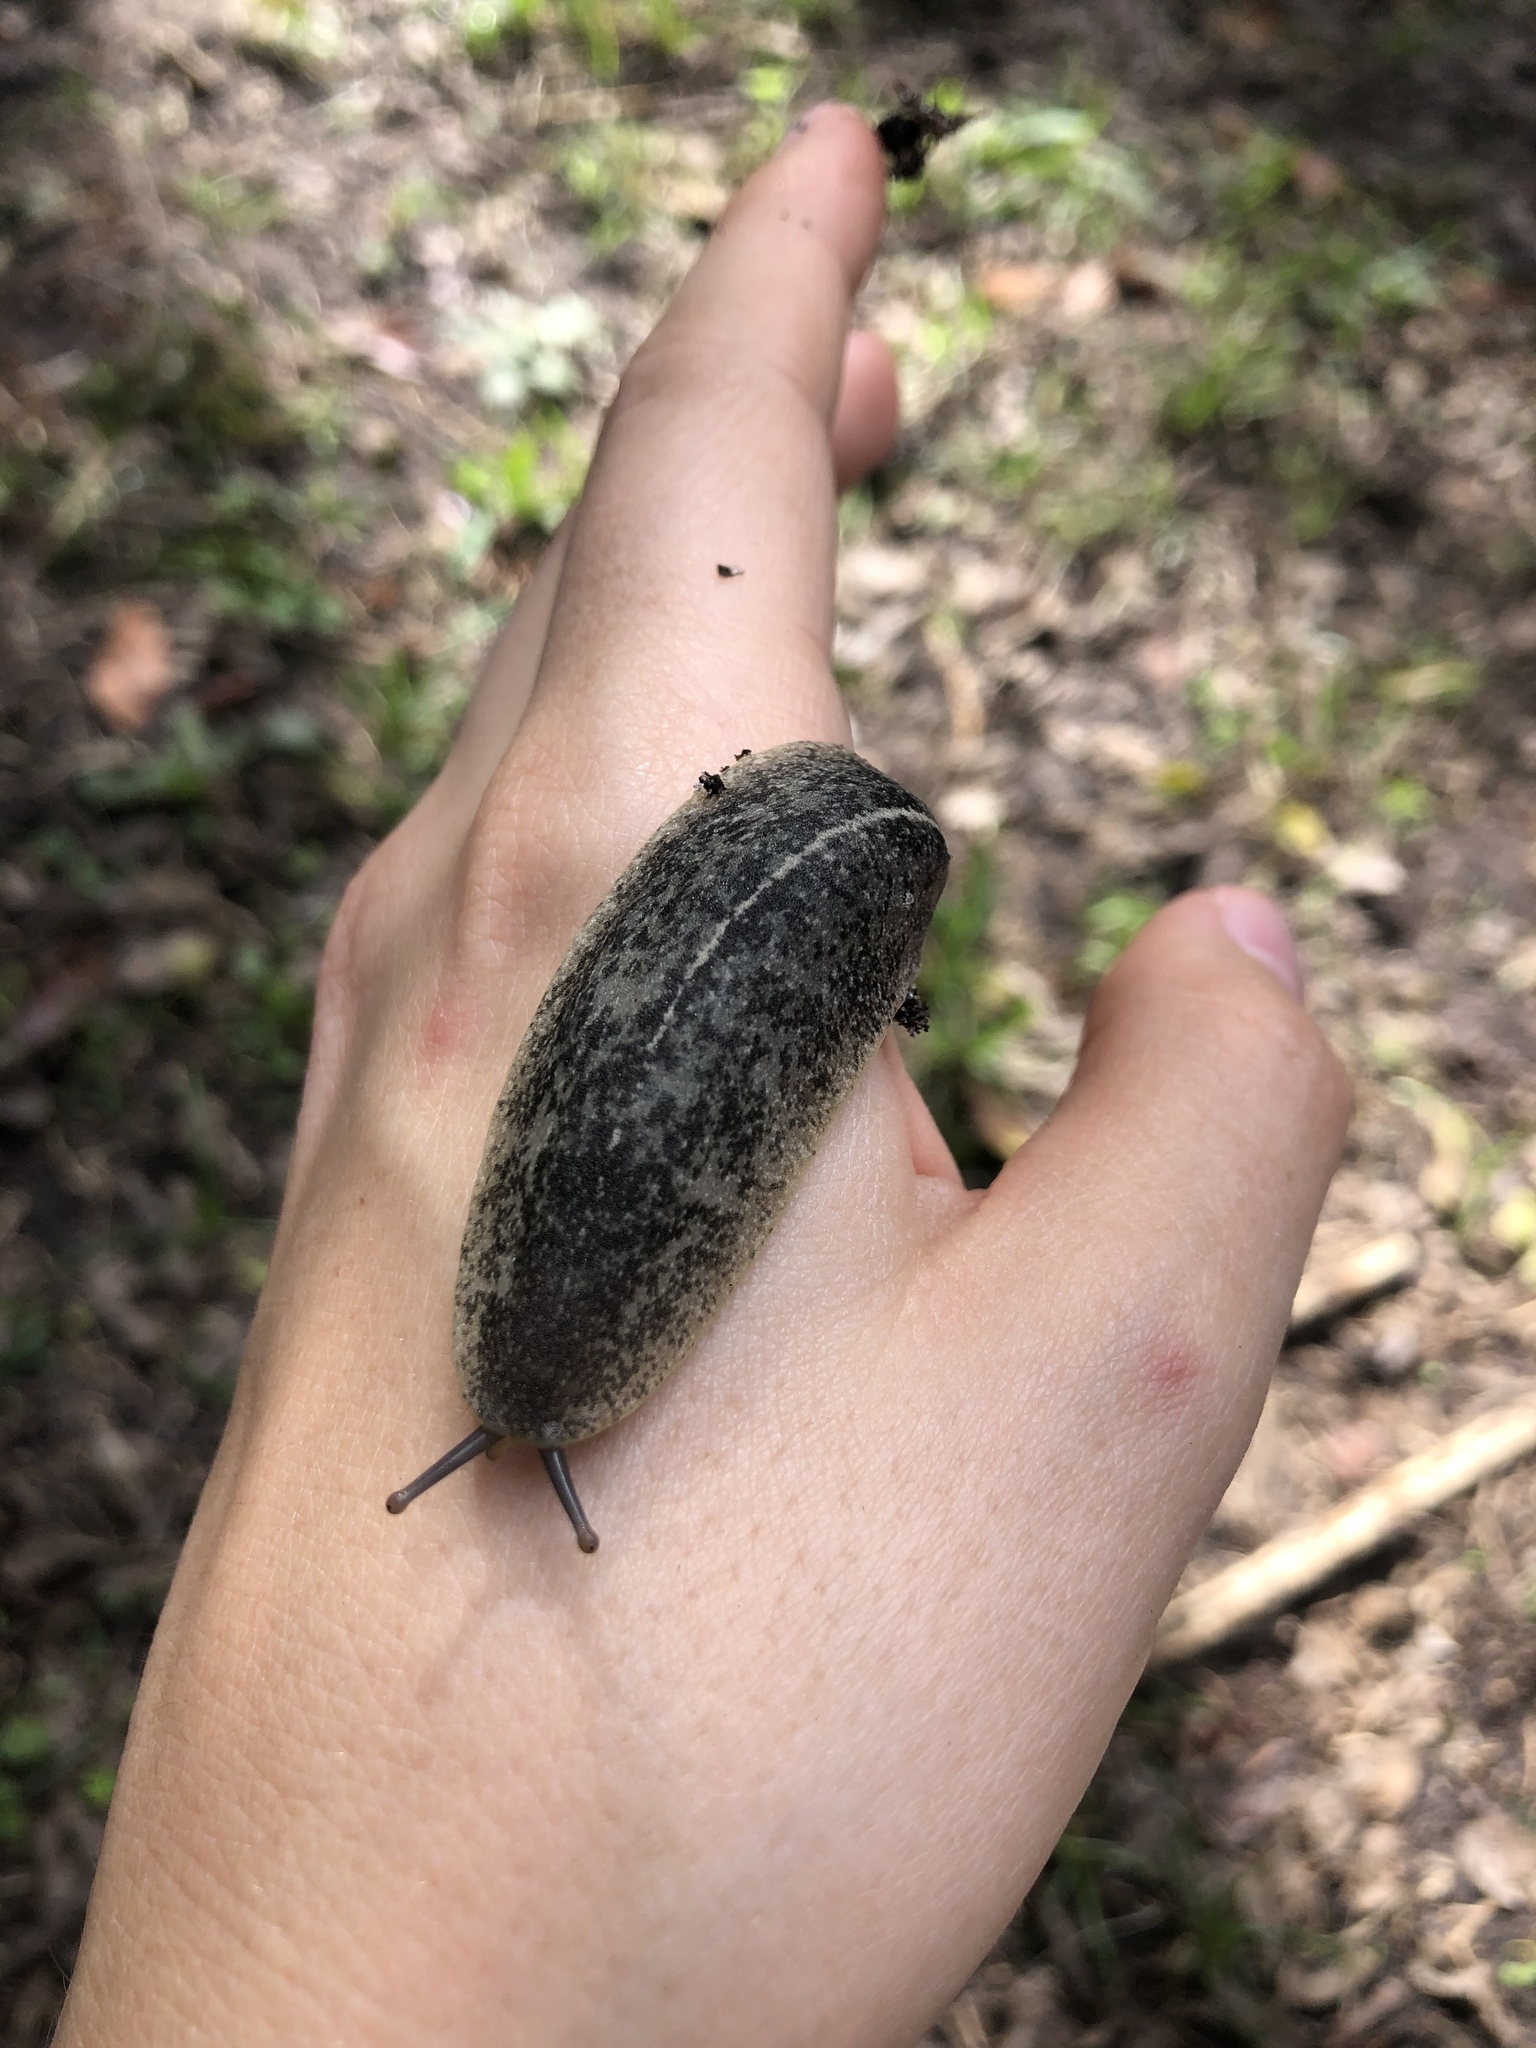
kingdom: Animalia
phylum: Mollusca
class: Gastropoda
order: Systellommatophora
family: Veronicellidae
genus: Leidyula
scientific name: Leidyula floridana
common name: Florida leatherleaf
